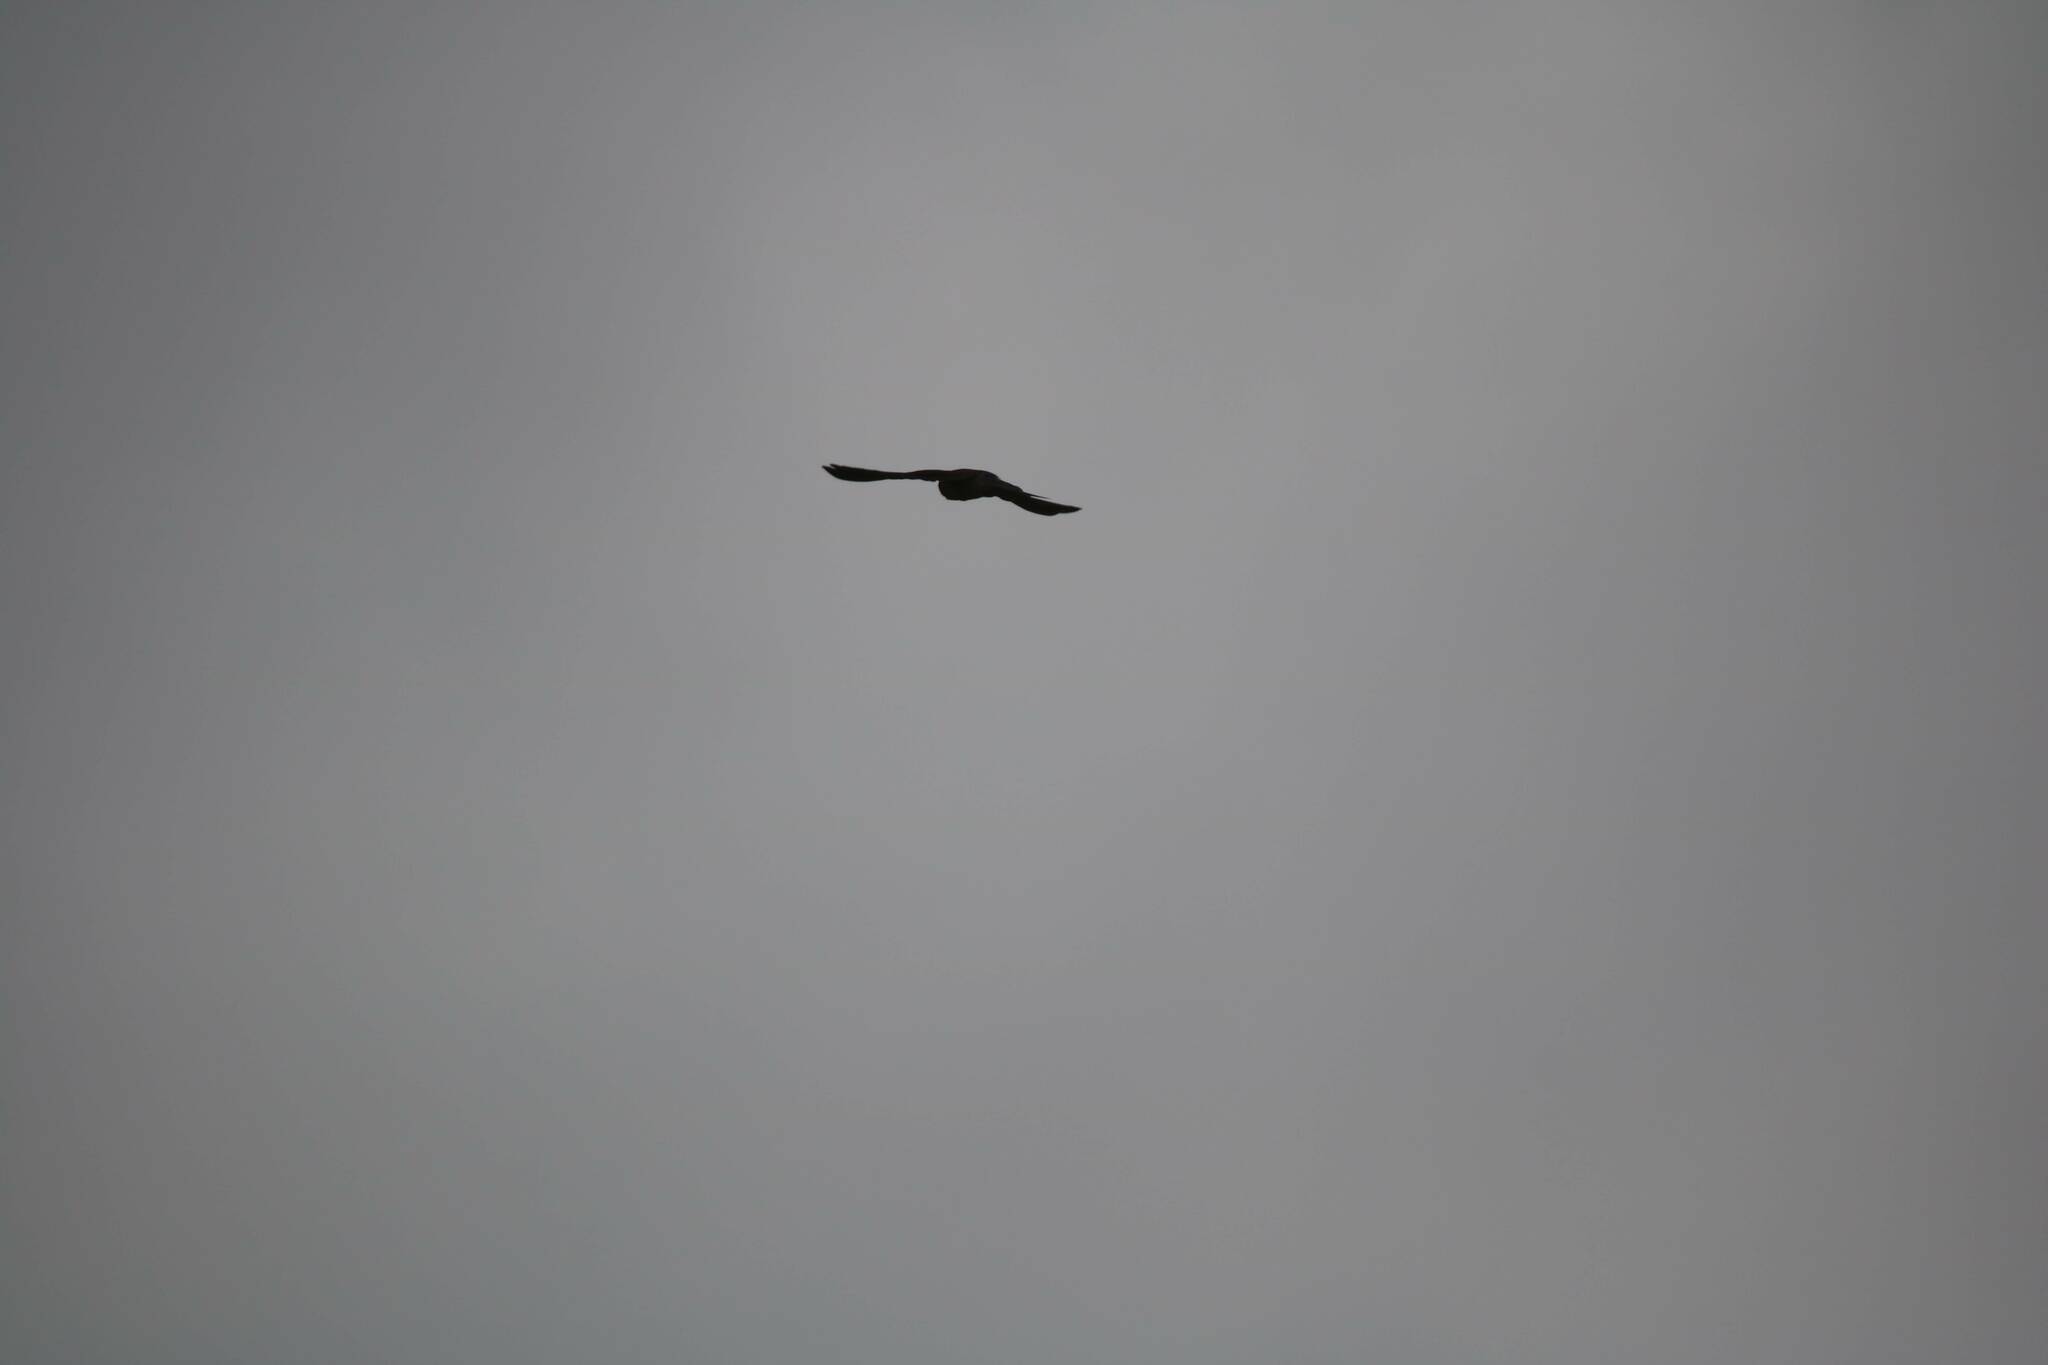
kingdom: Animalia
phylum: Chordata
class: Aves
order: Falconiformes
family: Falconidae
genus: Falco
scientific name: Falco tinnunculus
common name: Common kestrel
